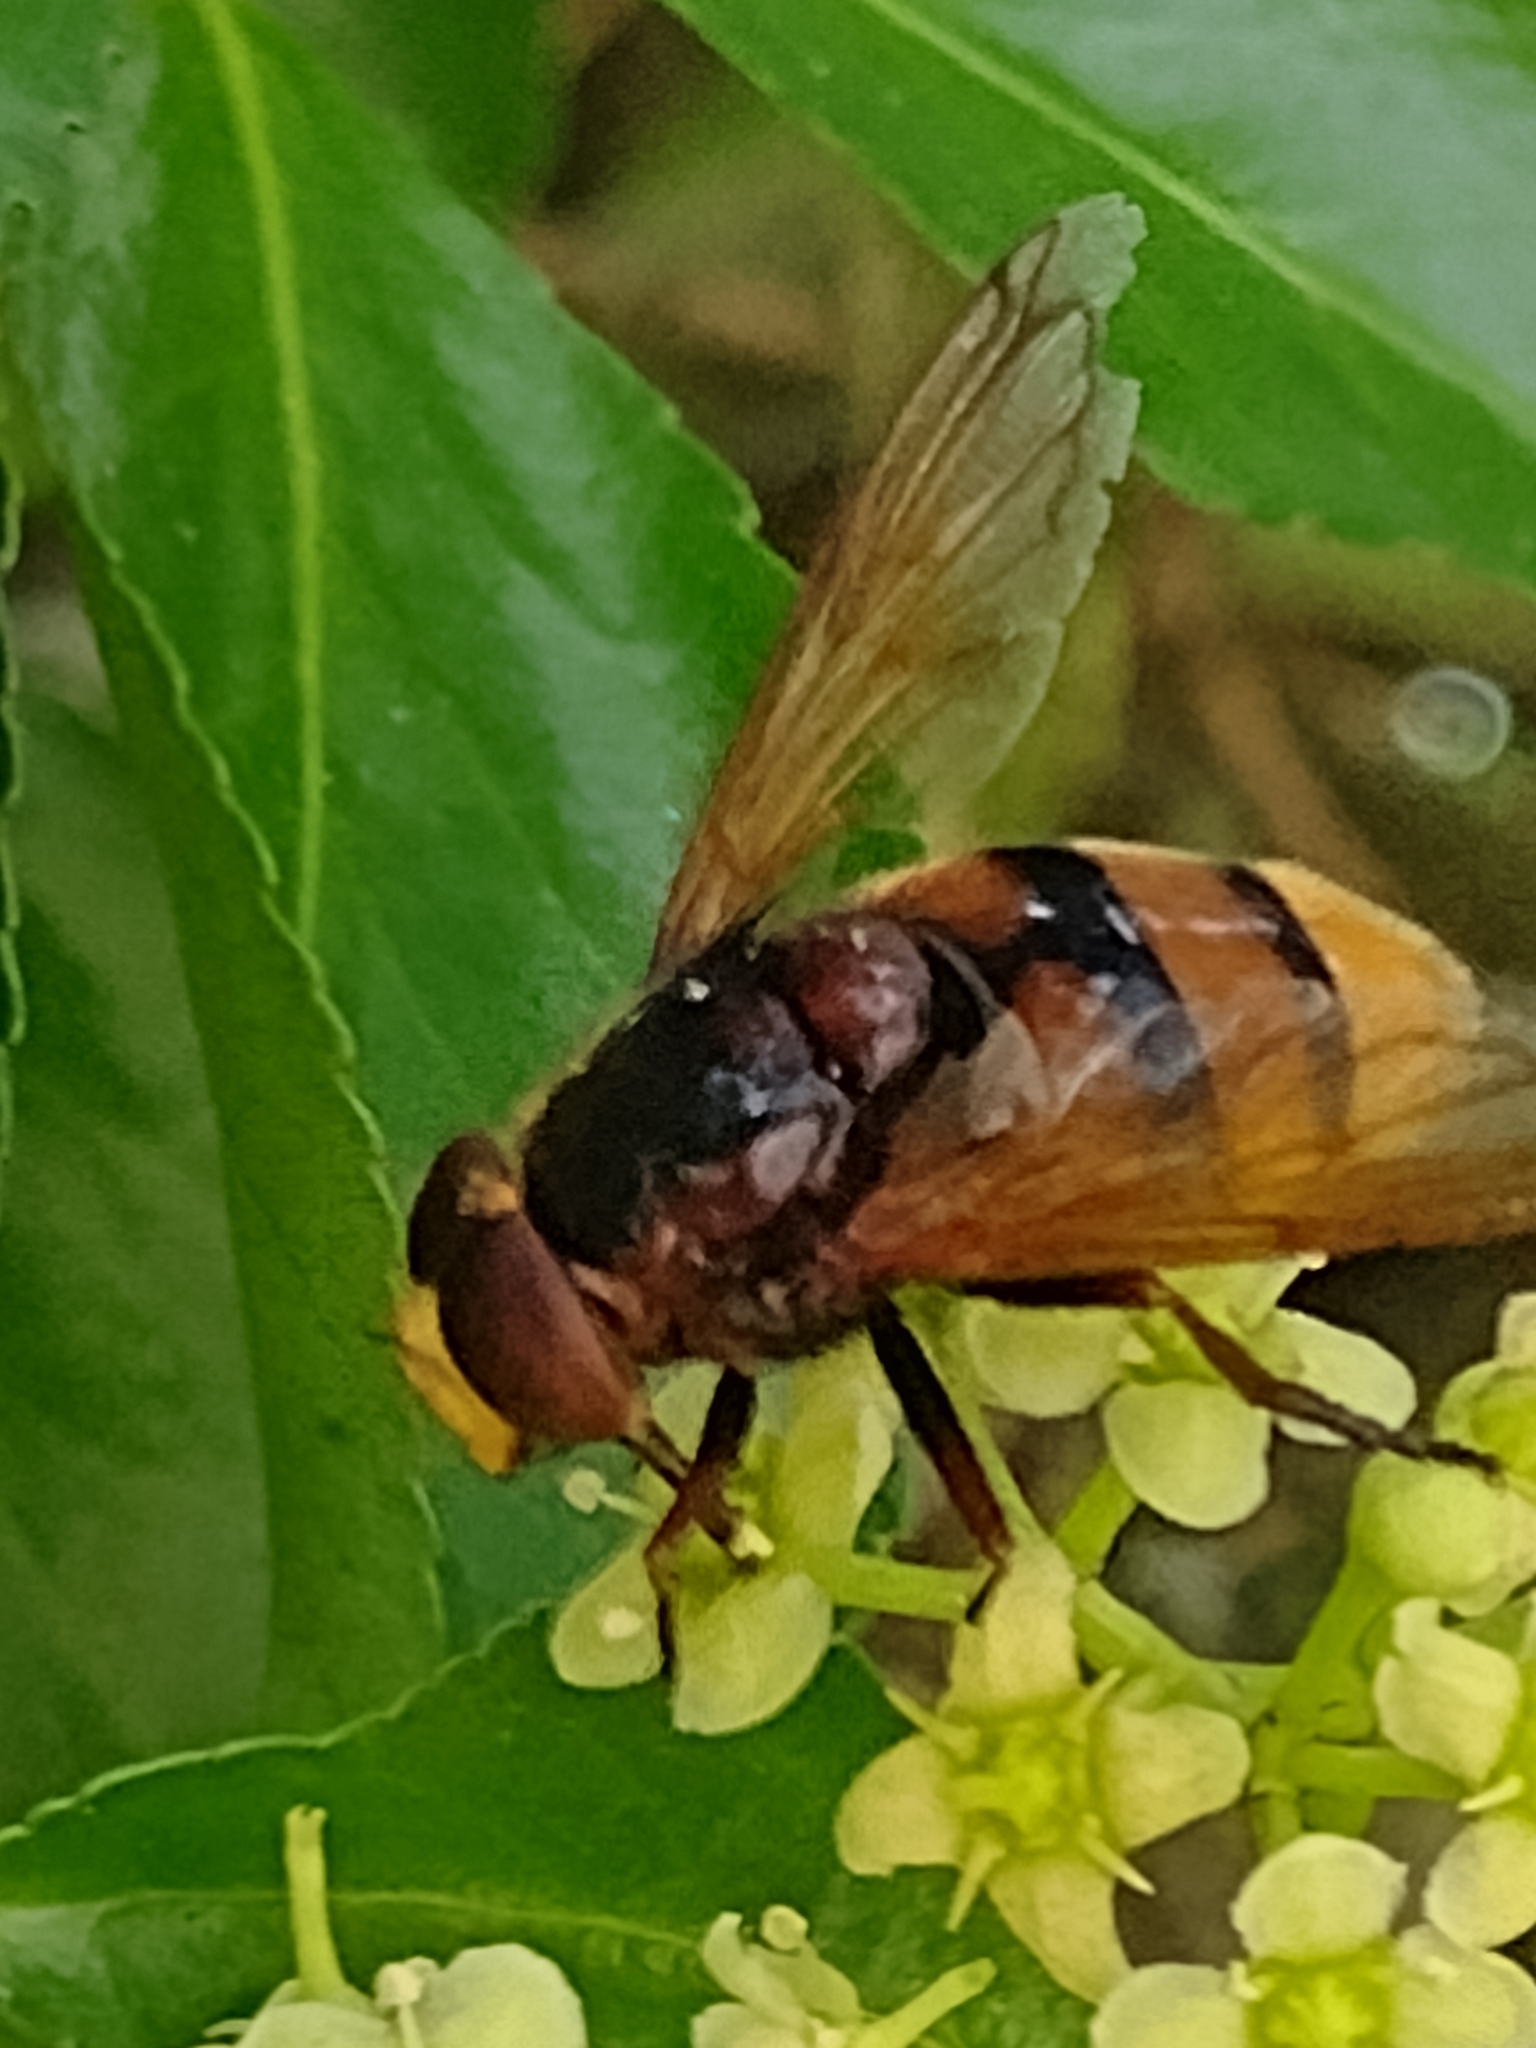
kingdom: Animalia
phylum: Arthropoda
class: Insecta
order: Diptera
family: Syrphidae
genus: Volucella
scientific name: Volucella zonaria
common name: Hornet hoverfly
